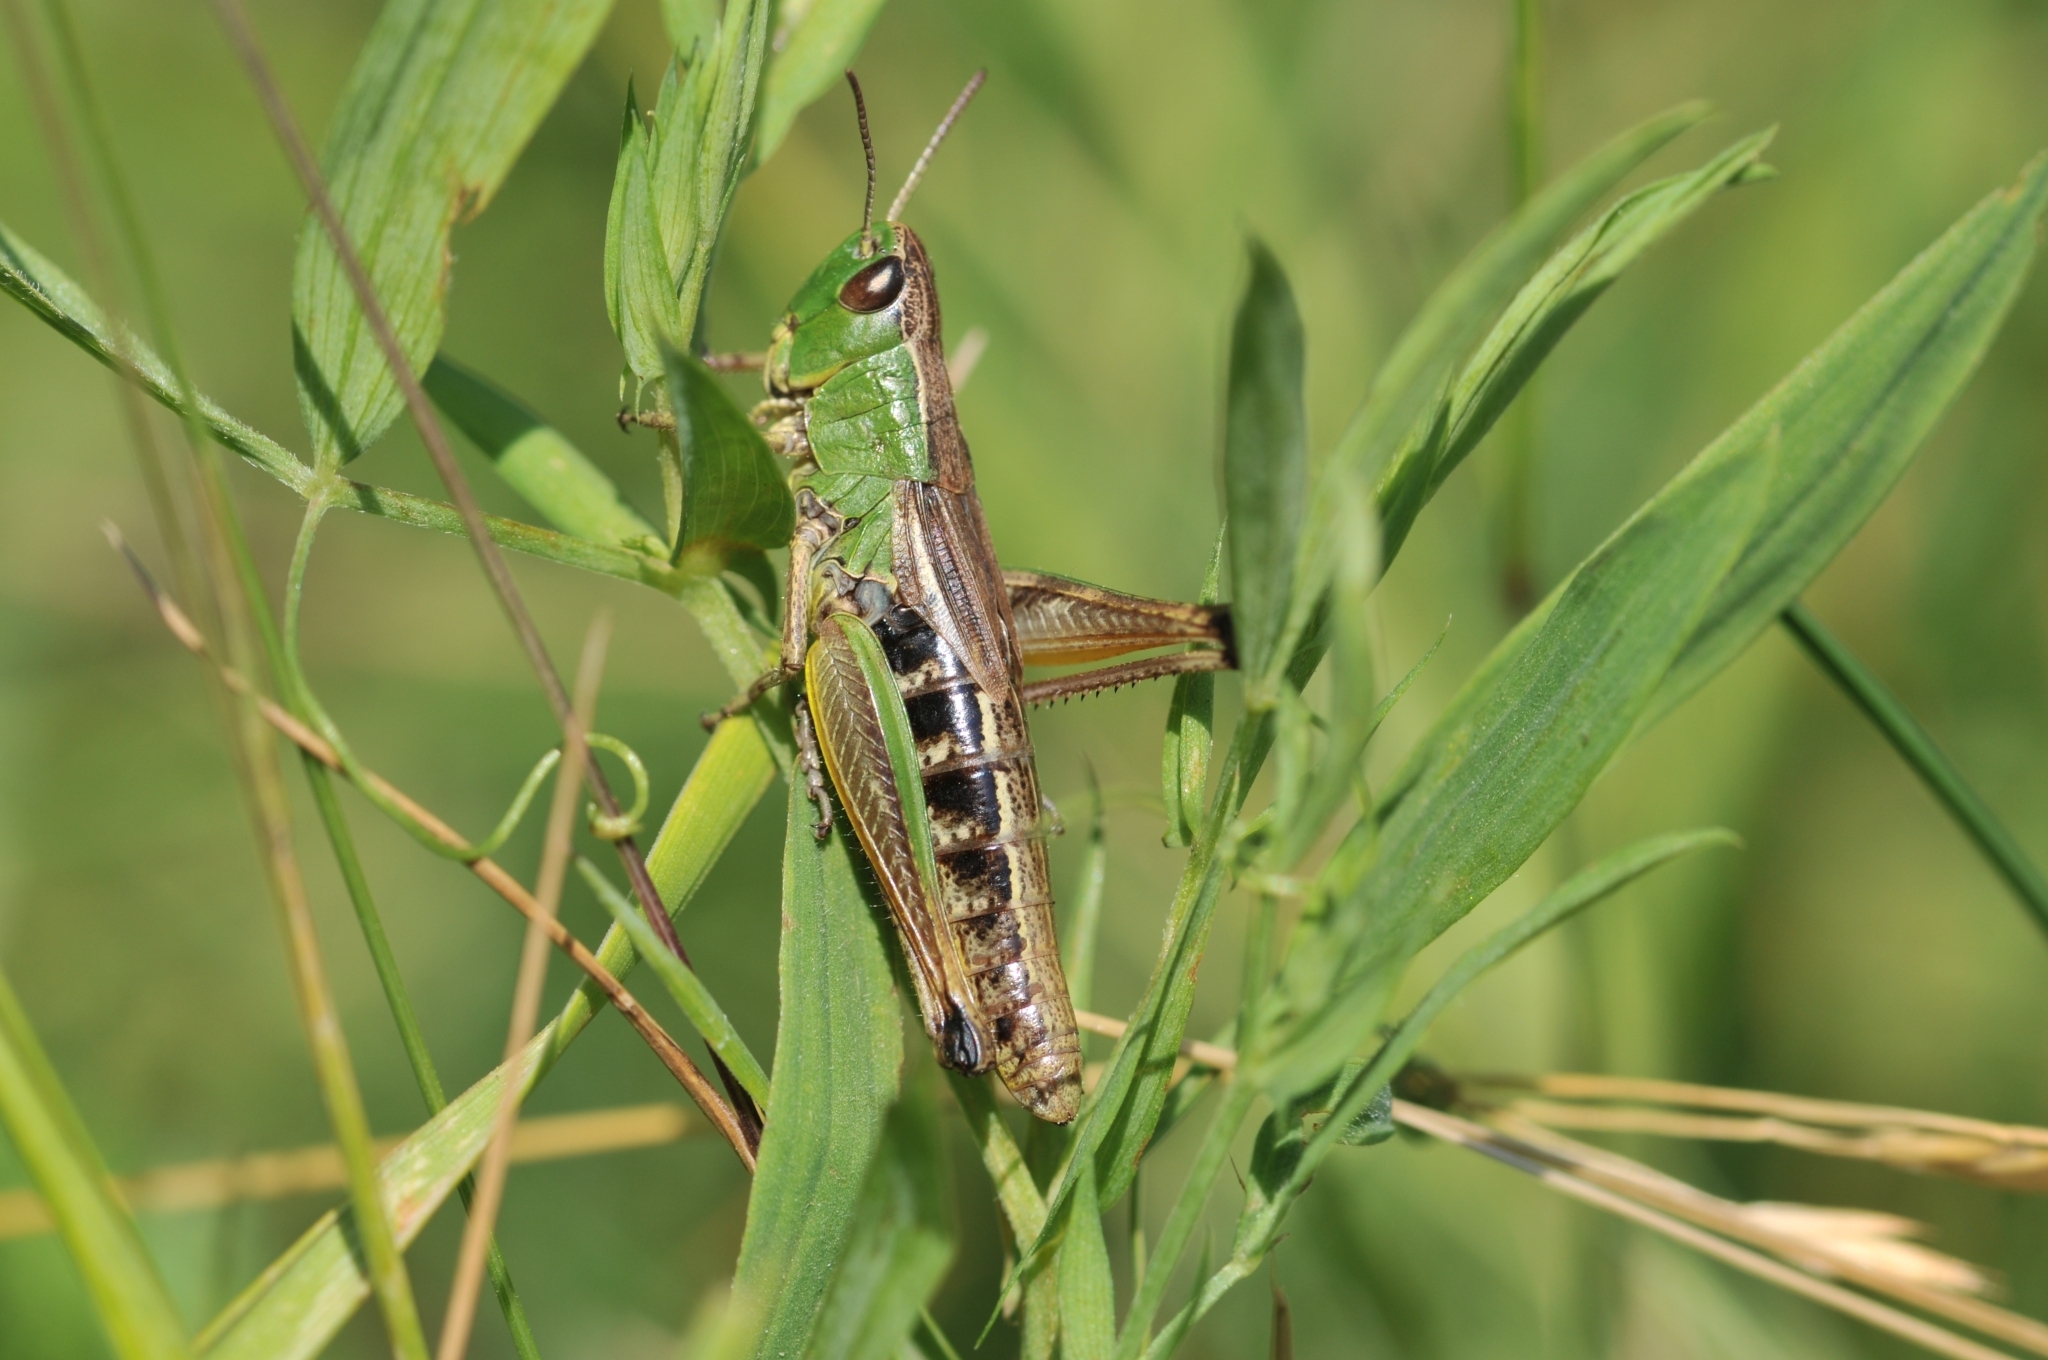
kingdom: Animalia
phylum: Arthropoda
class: Insecta
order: Orthoptera
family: Acrididae
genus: Pseudochorthippus
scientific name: Pseudochorthippus parallelus
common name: Meadow grasshopper
